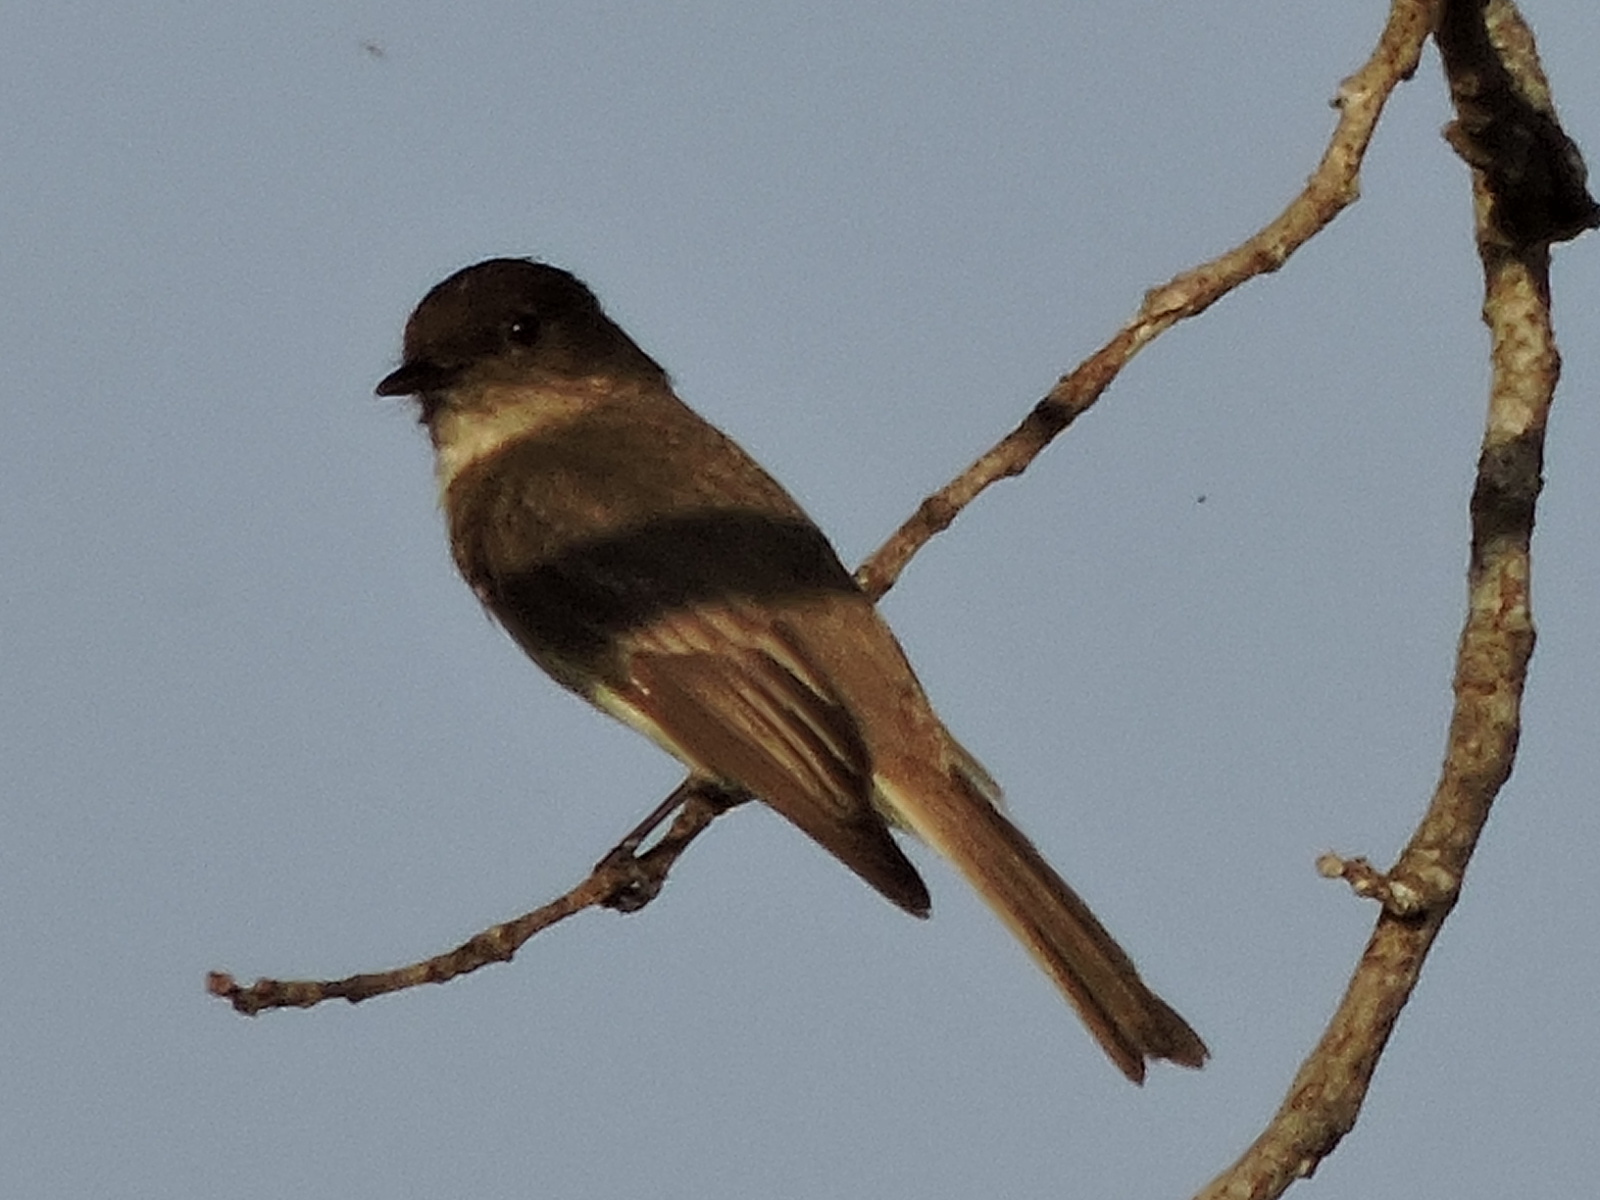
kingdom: Animalia
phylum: Chordata
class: Aves
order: Passeriformes
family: Tyrannidae
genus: Sayornis
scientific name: Sayornis phoebe
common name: Eastern phoebe
